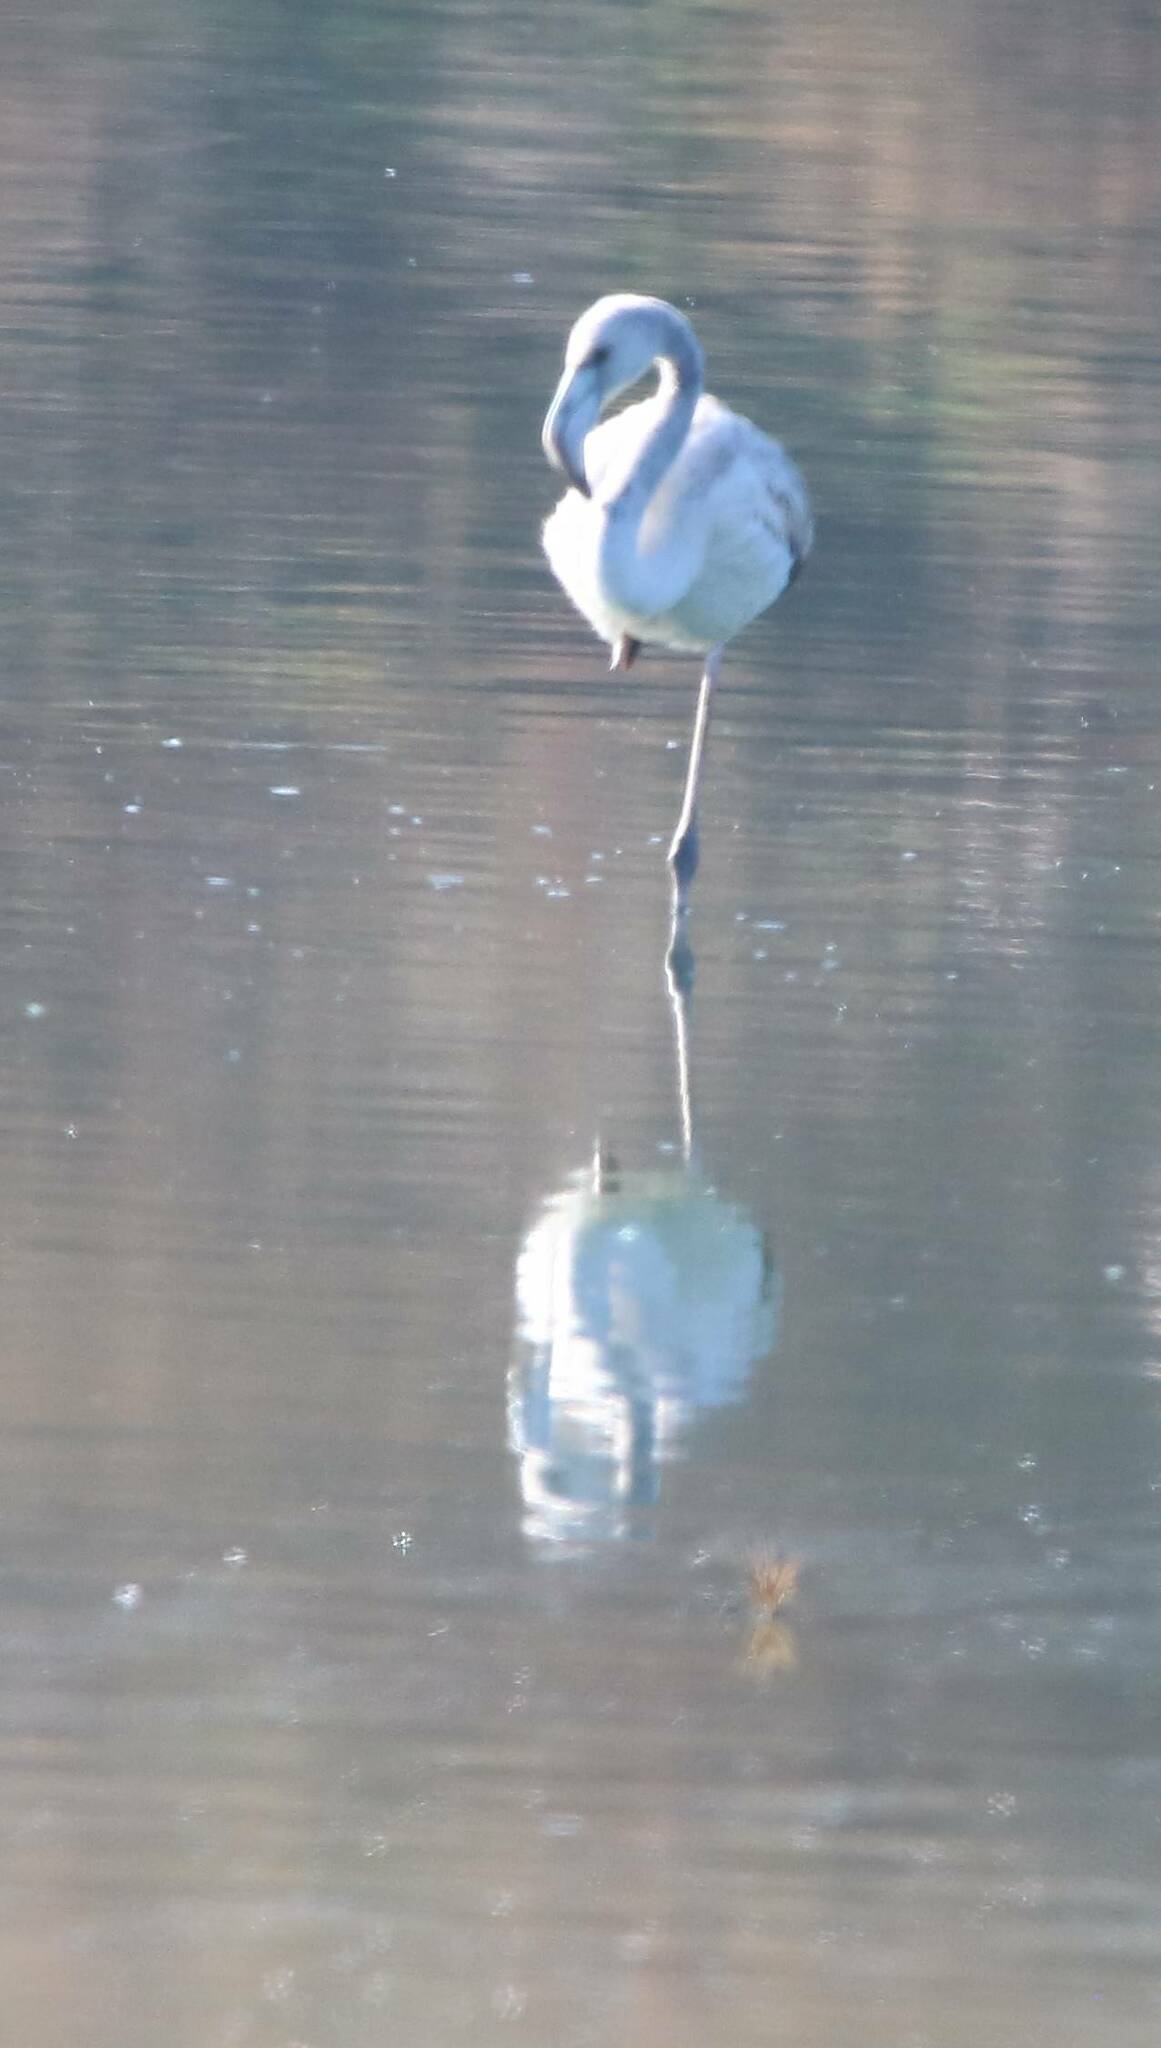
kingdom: Animalia
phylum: Chordata
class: Aves
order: Phoenicopteriformes
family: Phoenicopteridae
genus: Phoenicopterus
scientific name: Phoenicopterus roseus
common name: Greater flamingo
